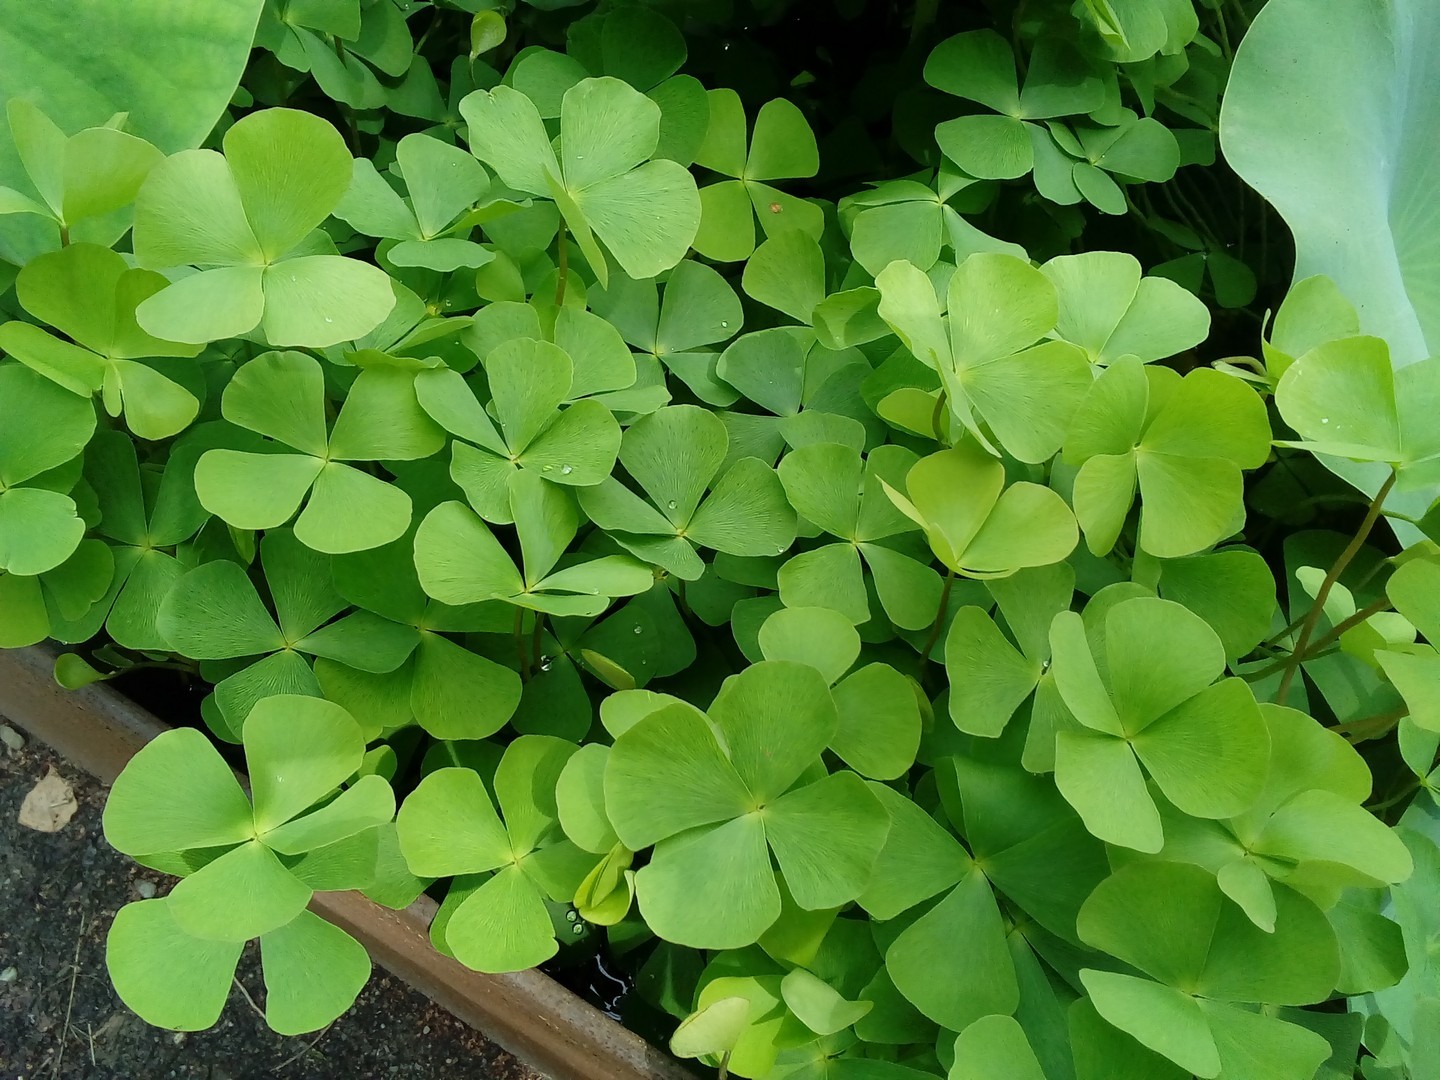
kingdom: Plantae
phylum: Tracheophyta
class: Polypodiopsida
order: Salviniales
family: Marsileaceae
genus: Marsilea
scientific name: Marsilea quadrifolia
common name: Water shamrock
